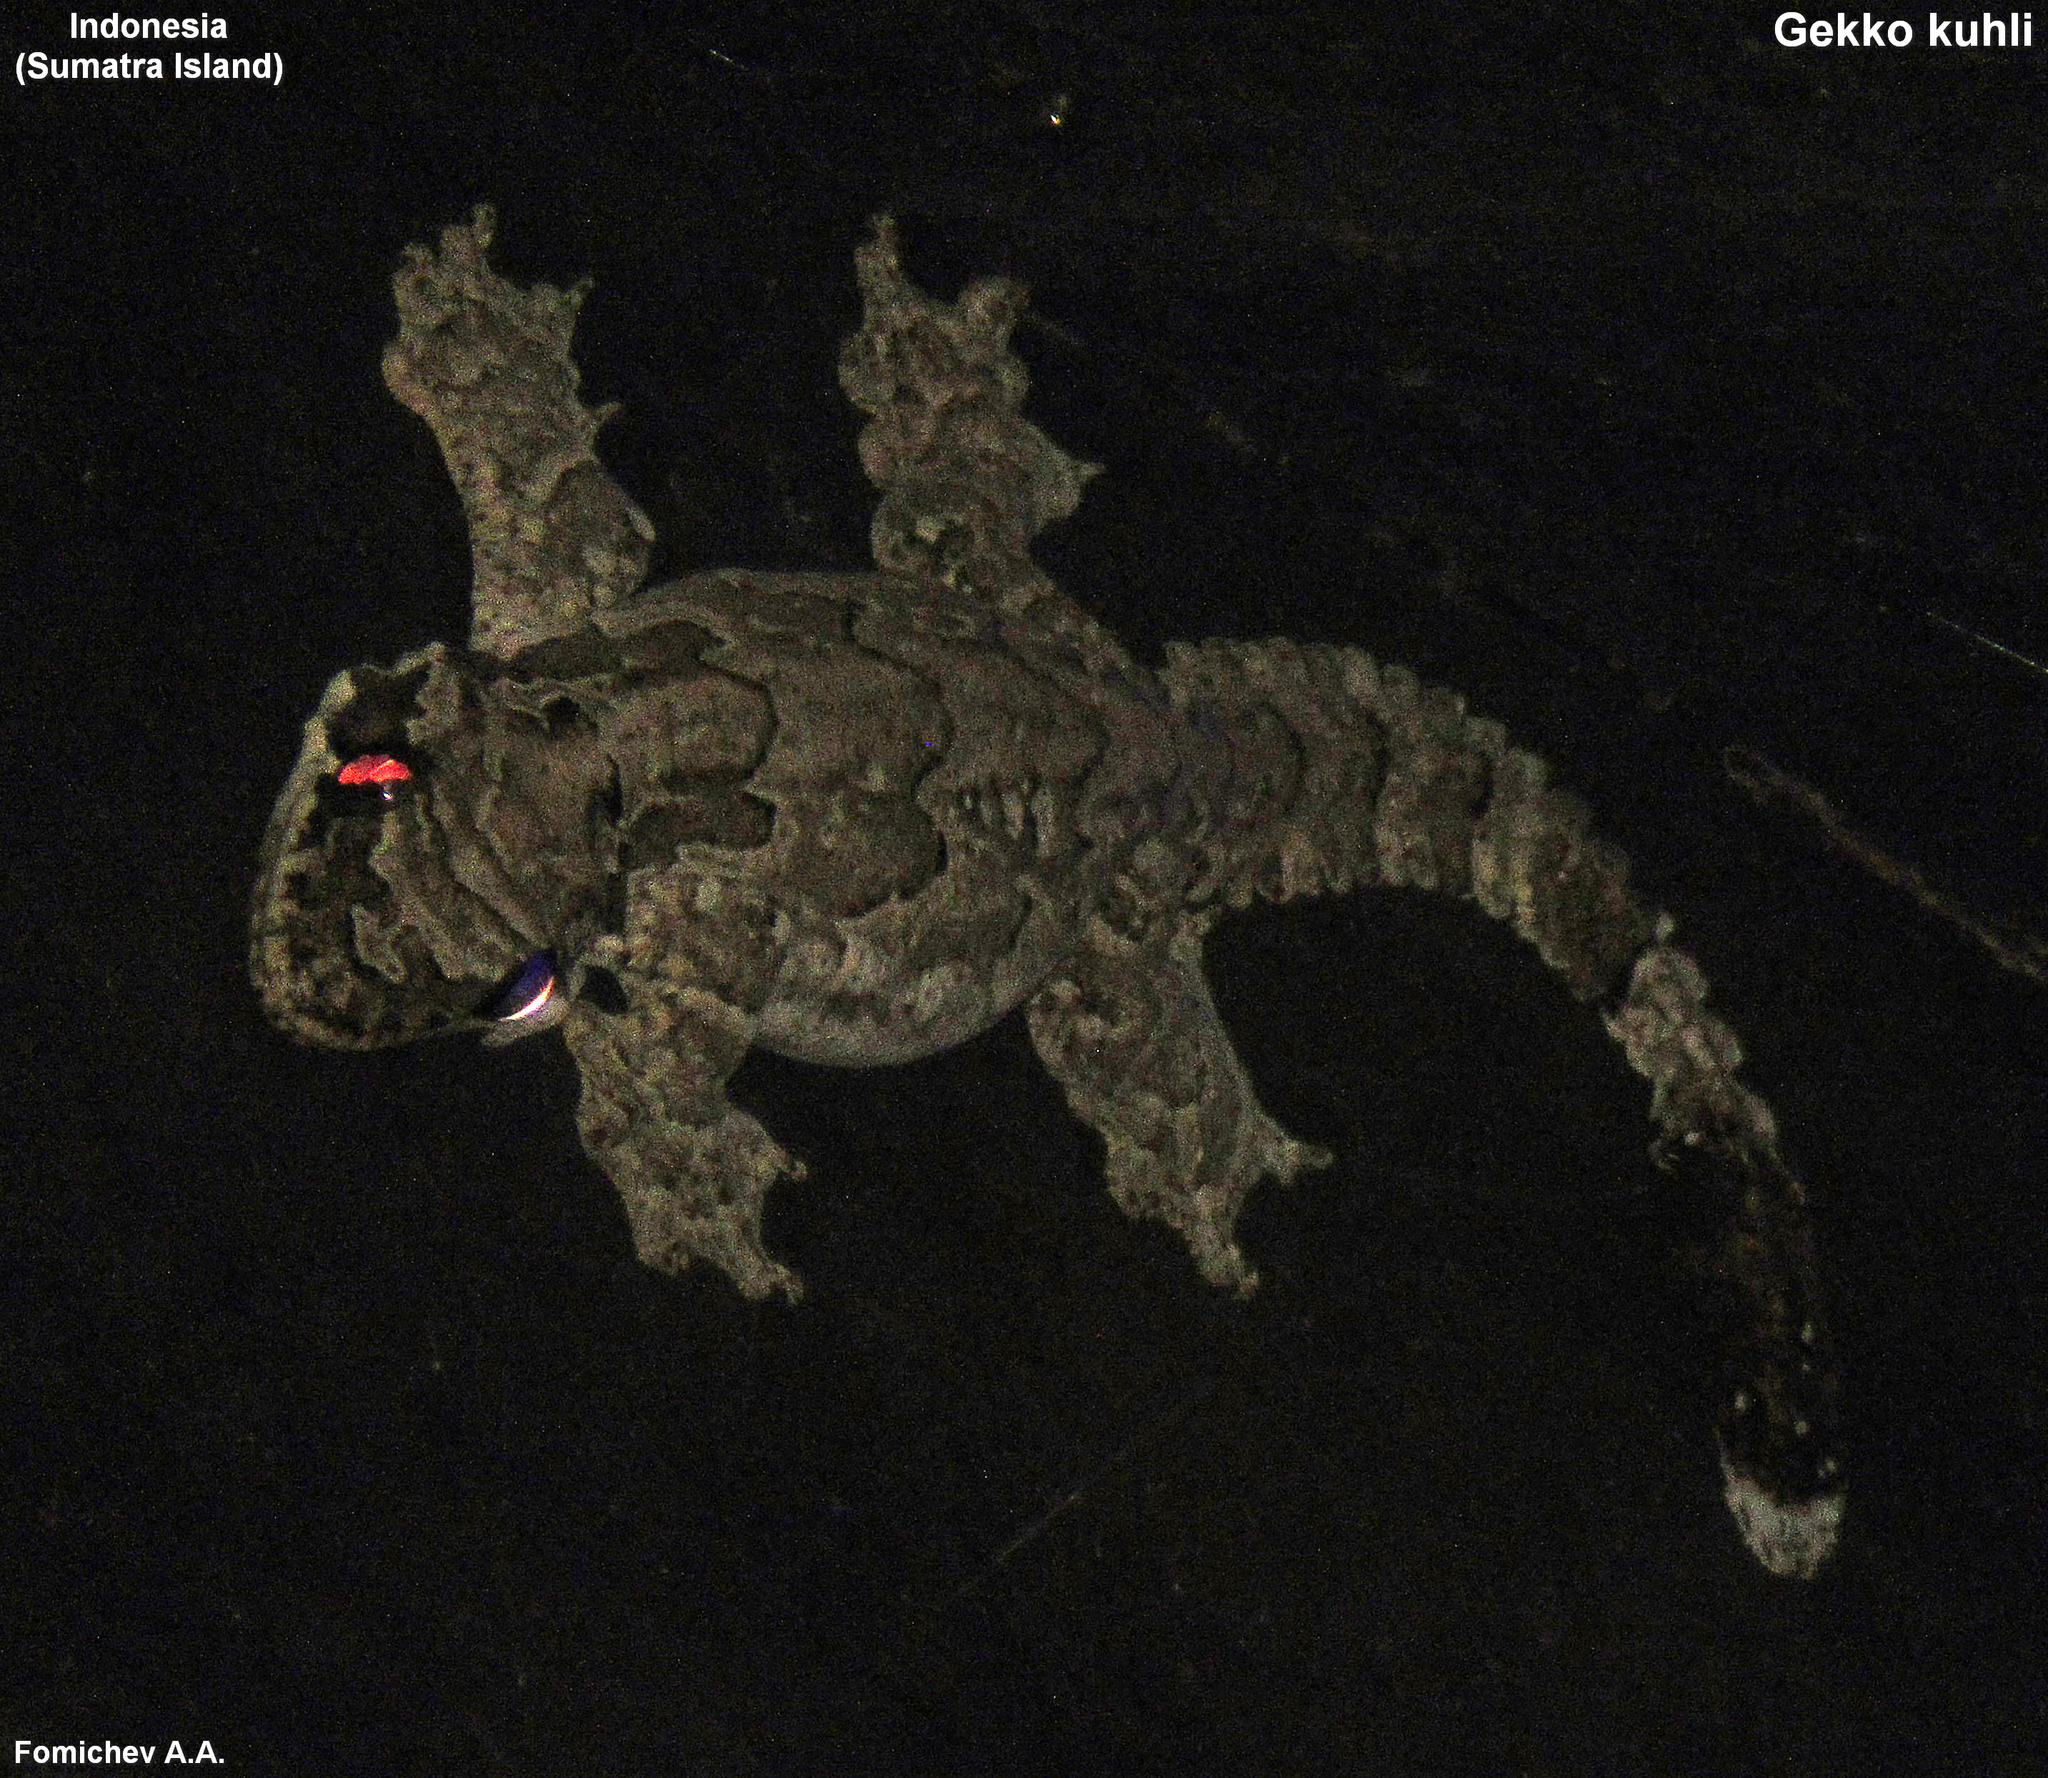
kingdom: Animalia
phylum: Chordata
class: Squamata
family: Gekkonidae
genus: Gekko
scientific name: Gekko kuhli
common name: Gliding gecko
